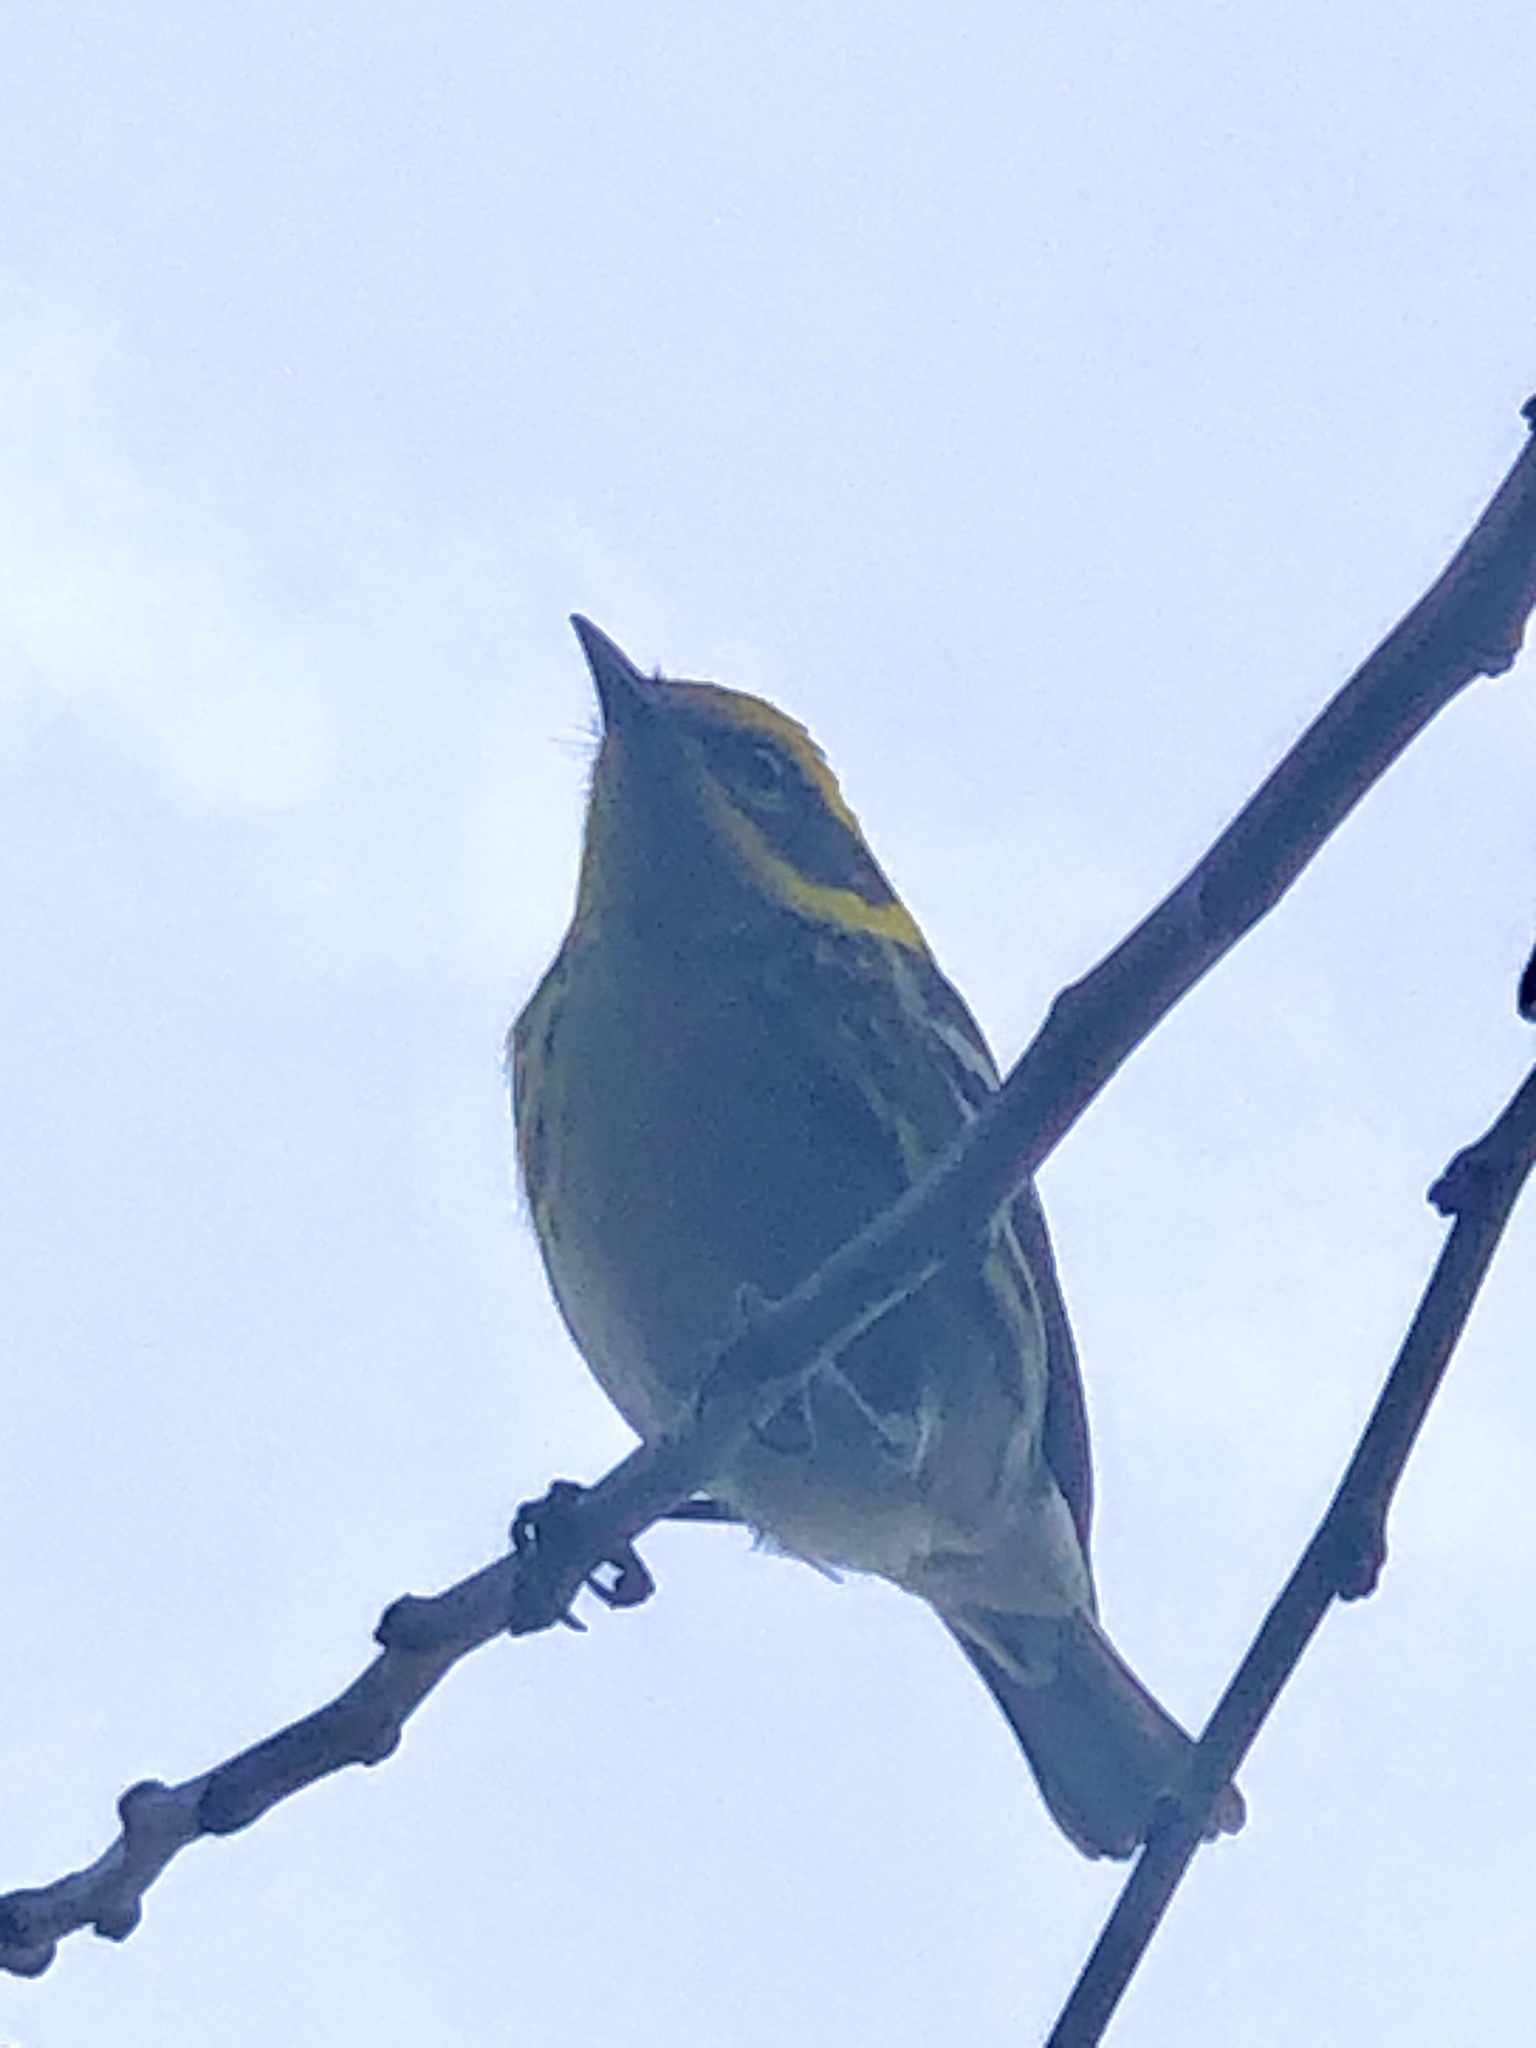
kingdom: Animalia
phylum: Chordata
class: Aves
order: Passeriformes
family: Parulidae
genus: Setophaga
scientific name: Setophaga townsendi
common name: Townsend's warbler
